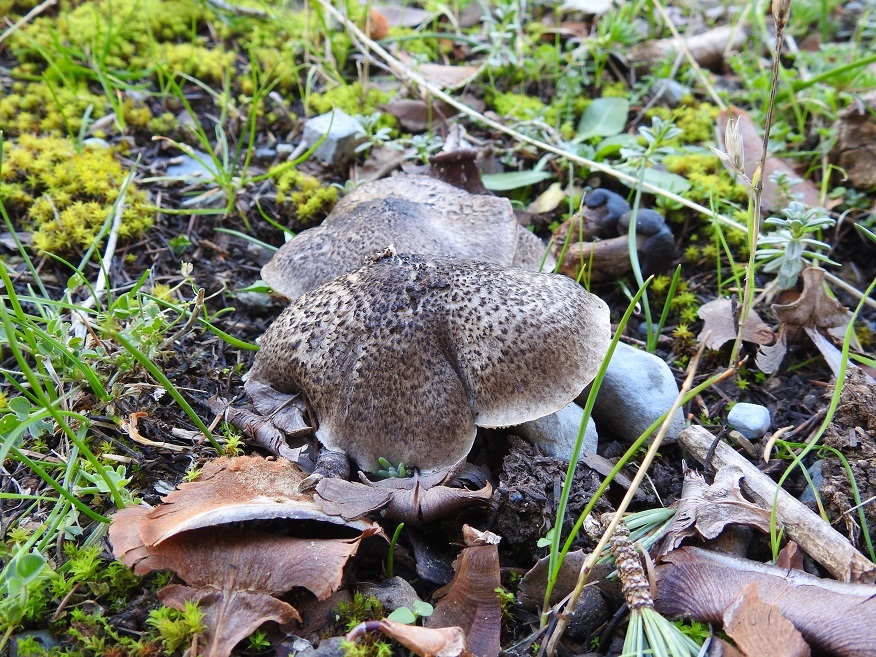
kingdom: Fungi
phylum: Basidiomycota
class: Agaricomycetes
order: Agaricales
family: Tricholomataceae
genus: Tricholoma
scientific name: Tricholoma scalpturatum
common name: Yellowing knight
